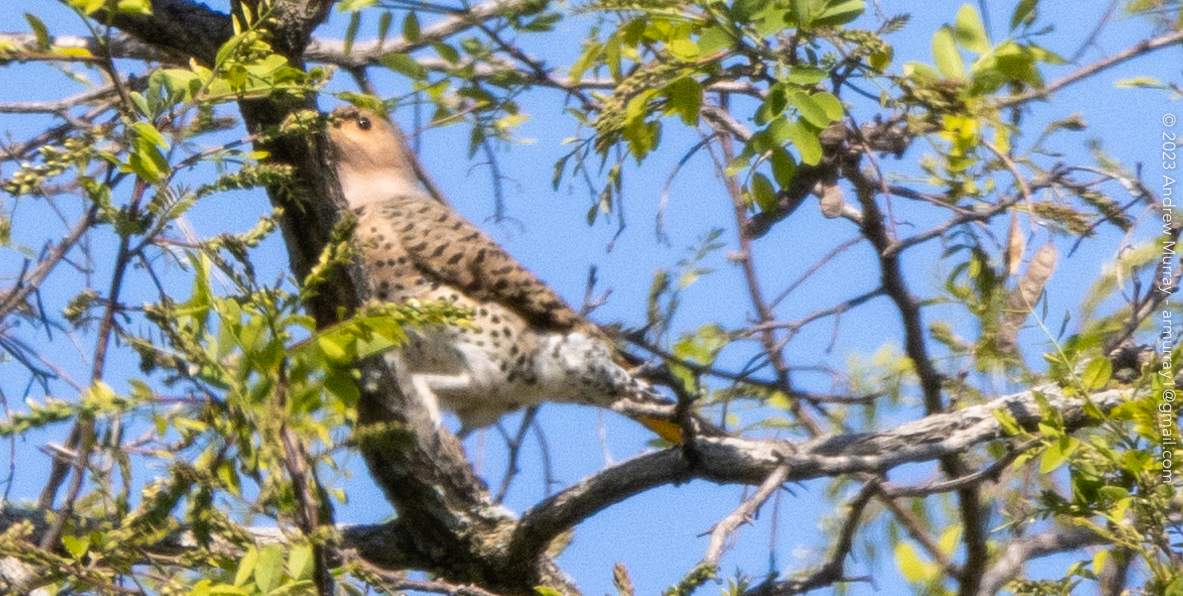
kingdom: Animalia
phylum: Chordata
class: Aves
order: Piciformes
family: Picidae
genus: Colaptes
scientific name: Colaptes auratus
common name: Northern flicker
